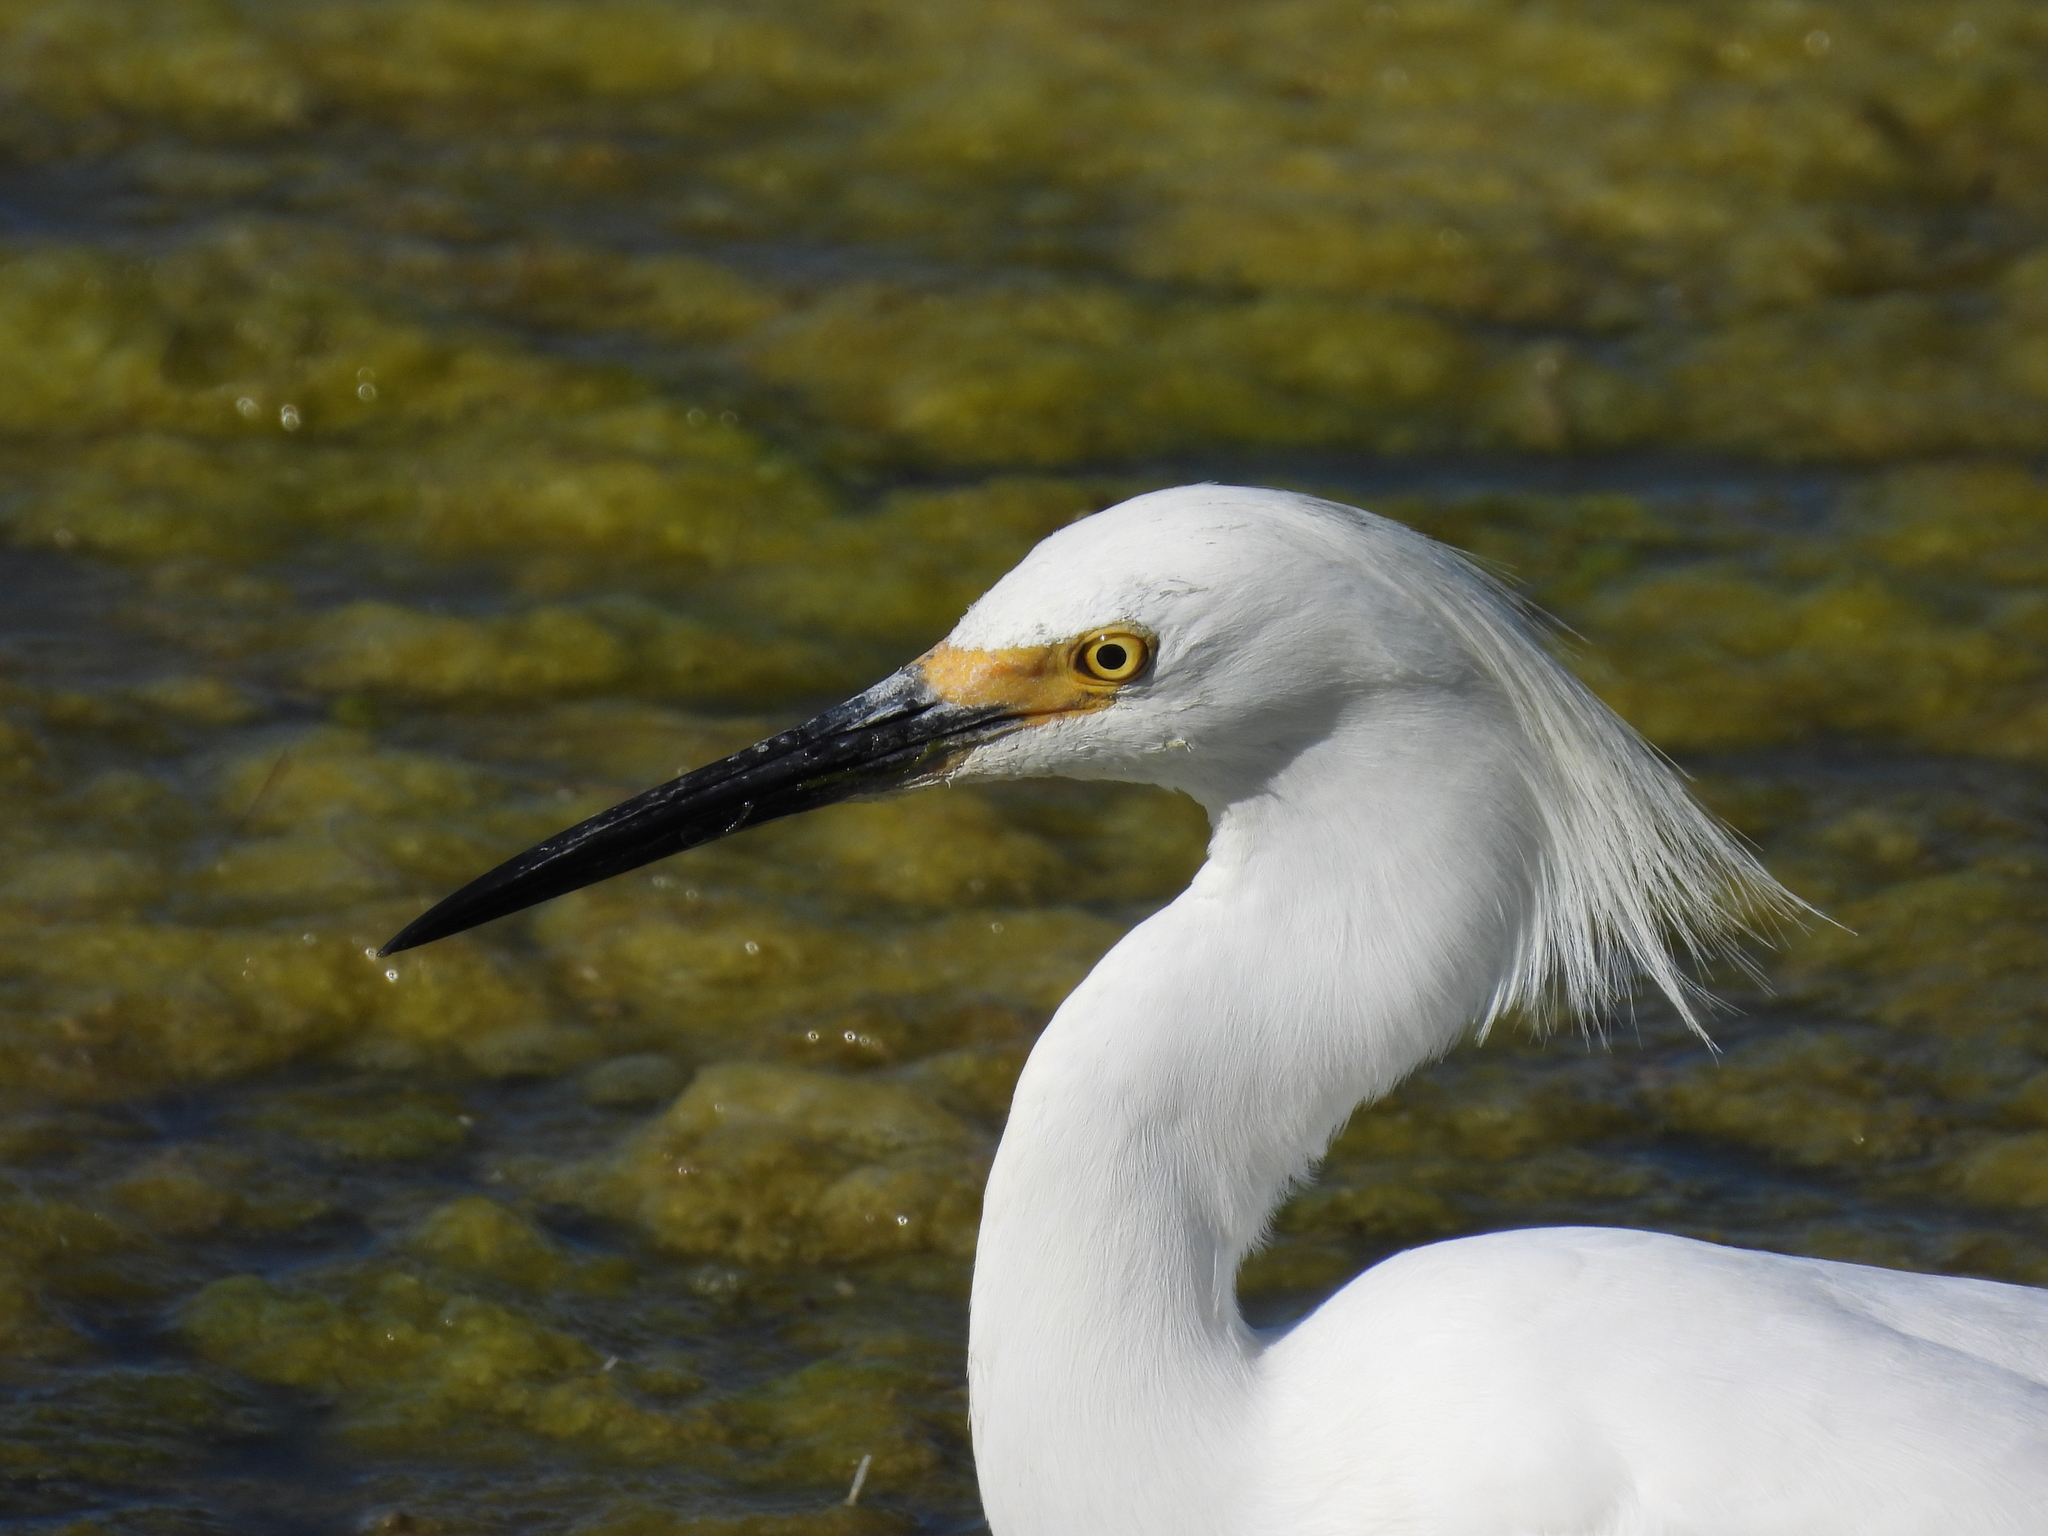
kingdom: Animalia
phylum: Chordata
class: Aves
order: Pelecaniformes
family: Ardeidae
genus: Egretta
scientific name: Egretta thula
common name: Snowy egret
